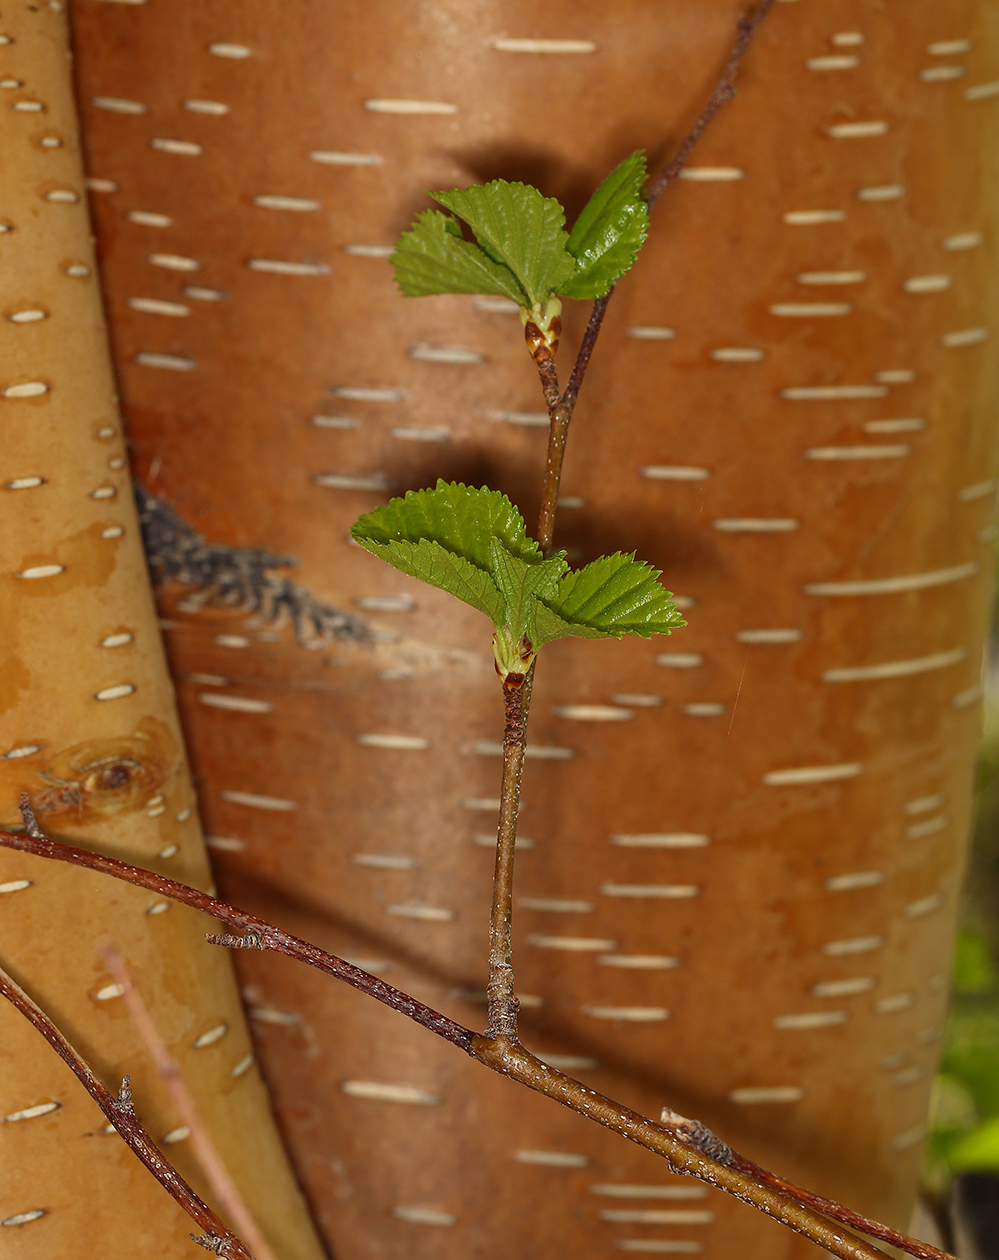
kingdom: Plantae
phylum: Tracheophyta
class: Magnoliopsida
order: Fagales
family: Betulaceae
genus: Betula
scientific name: Betula occidentalis
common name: River birch
